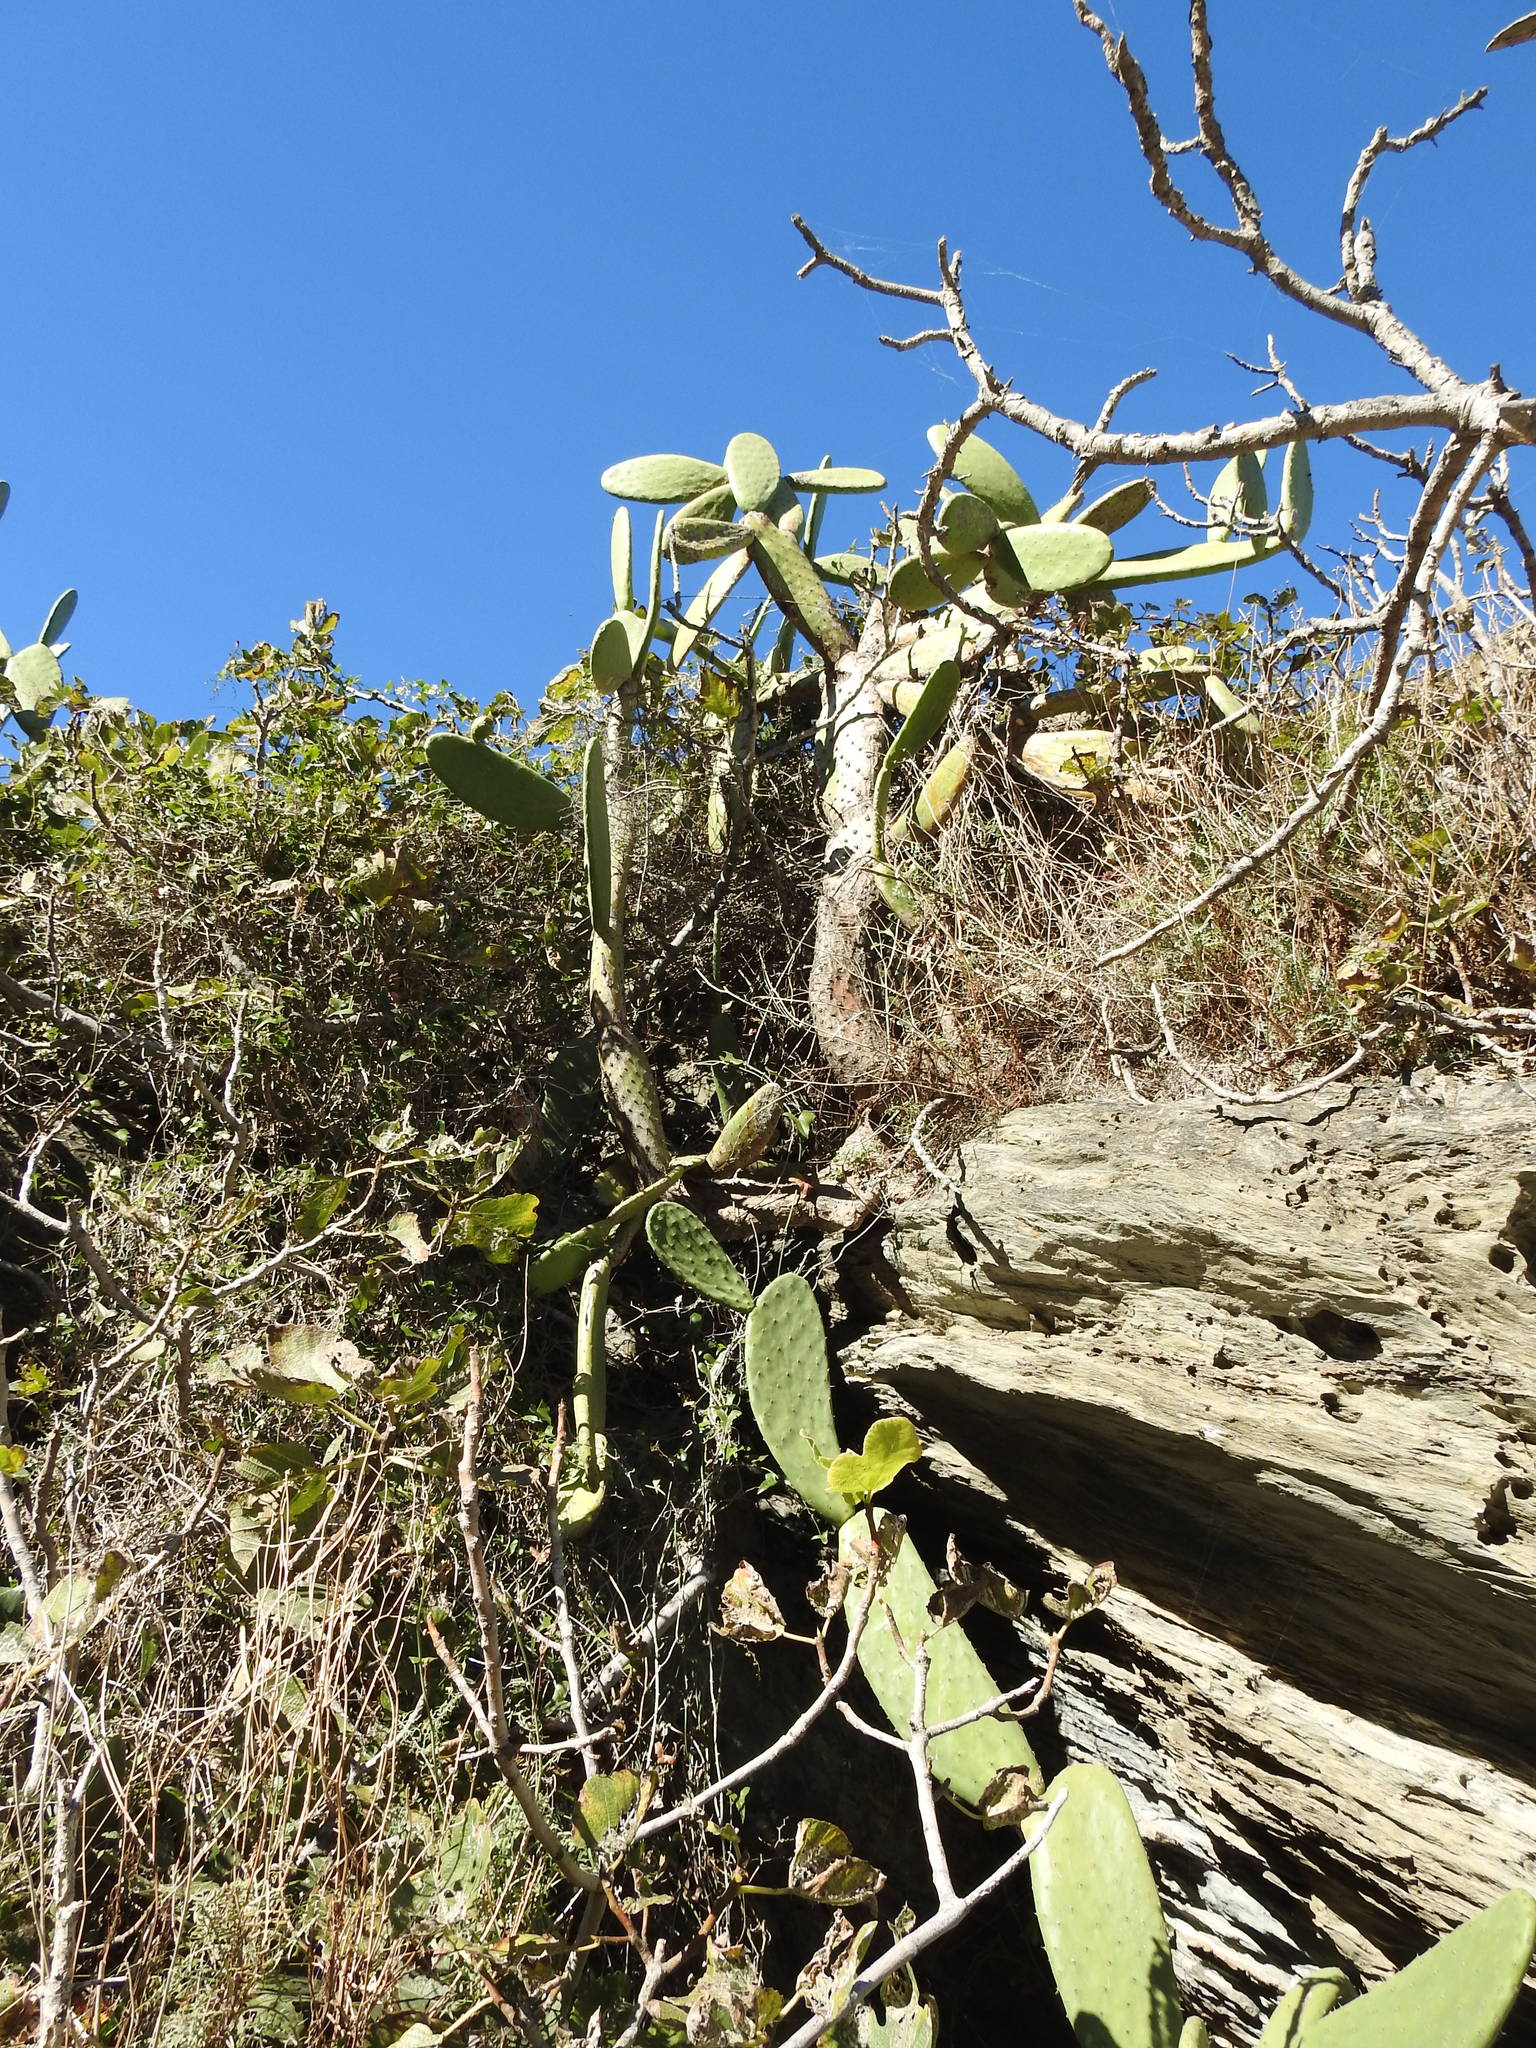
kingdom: Plantae
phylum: Tracheophyta
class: Magnoliopsida
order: Caryophyllales
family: Cactaceae
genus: Opuntia
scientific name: Opuntia ficus-indica
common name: Barbary fig
